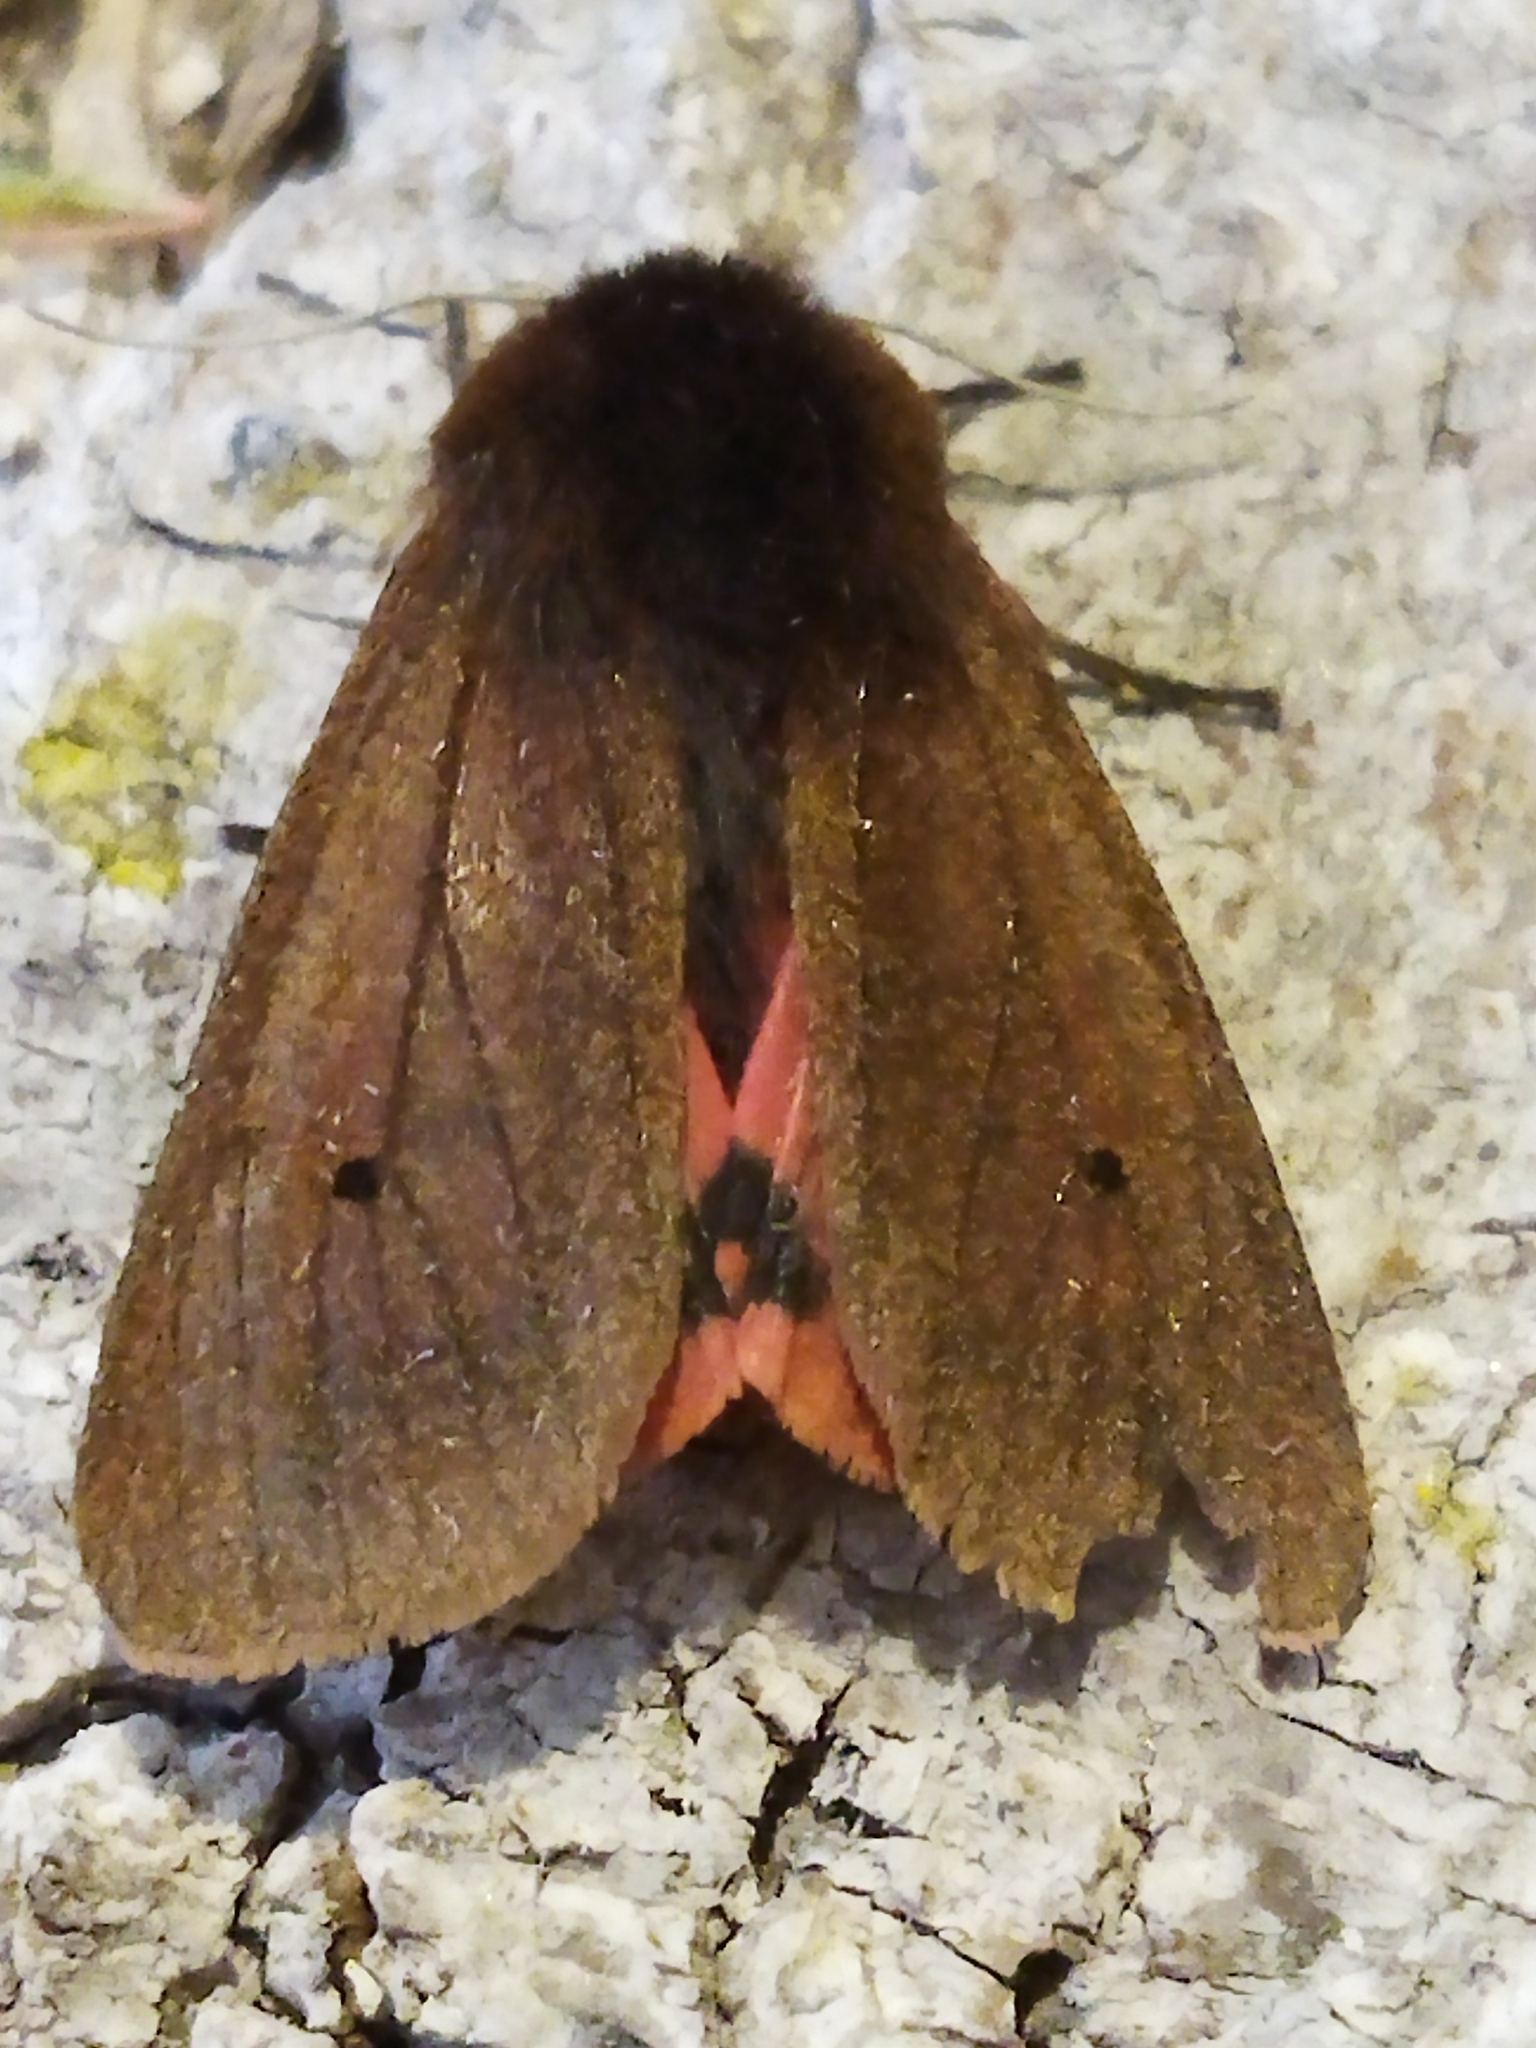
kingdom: Animalia
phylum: Arthropoda
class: Insecta
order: Lepidoptera
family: Erebidae
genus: Phragmatobia
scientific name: Phragmatobia fuliginosa
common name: Ruby tiger
